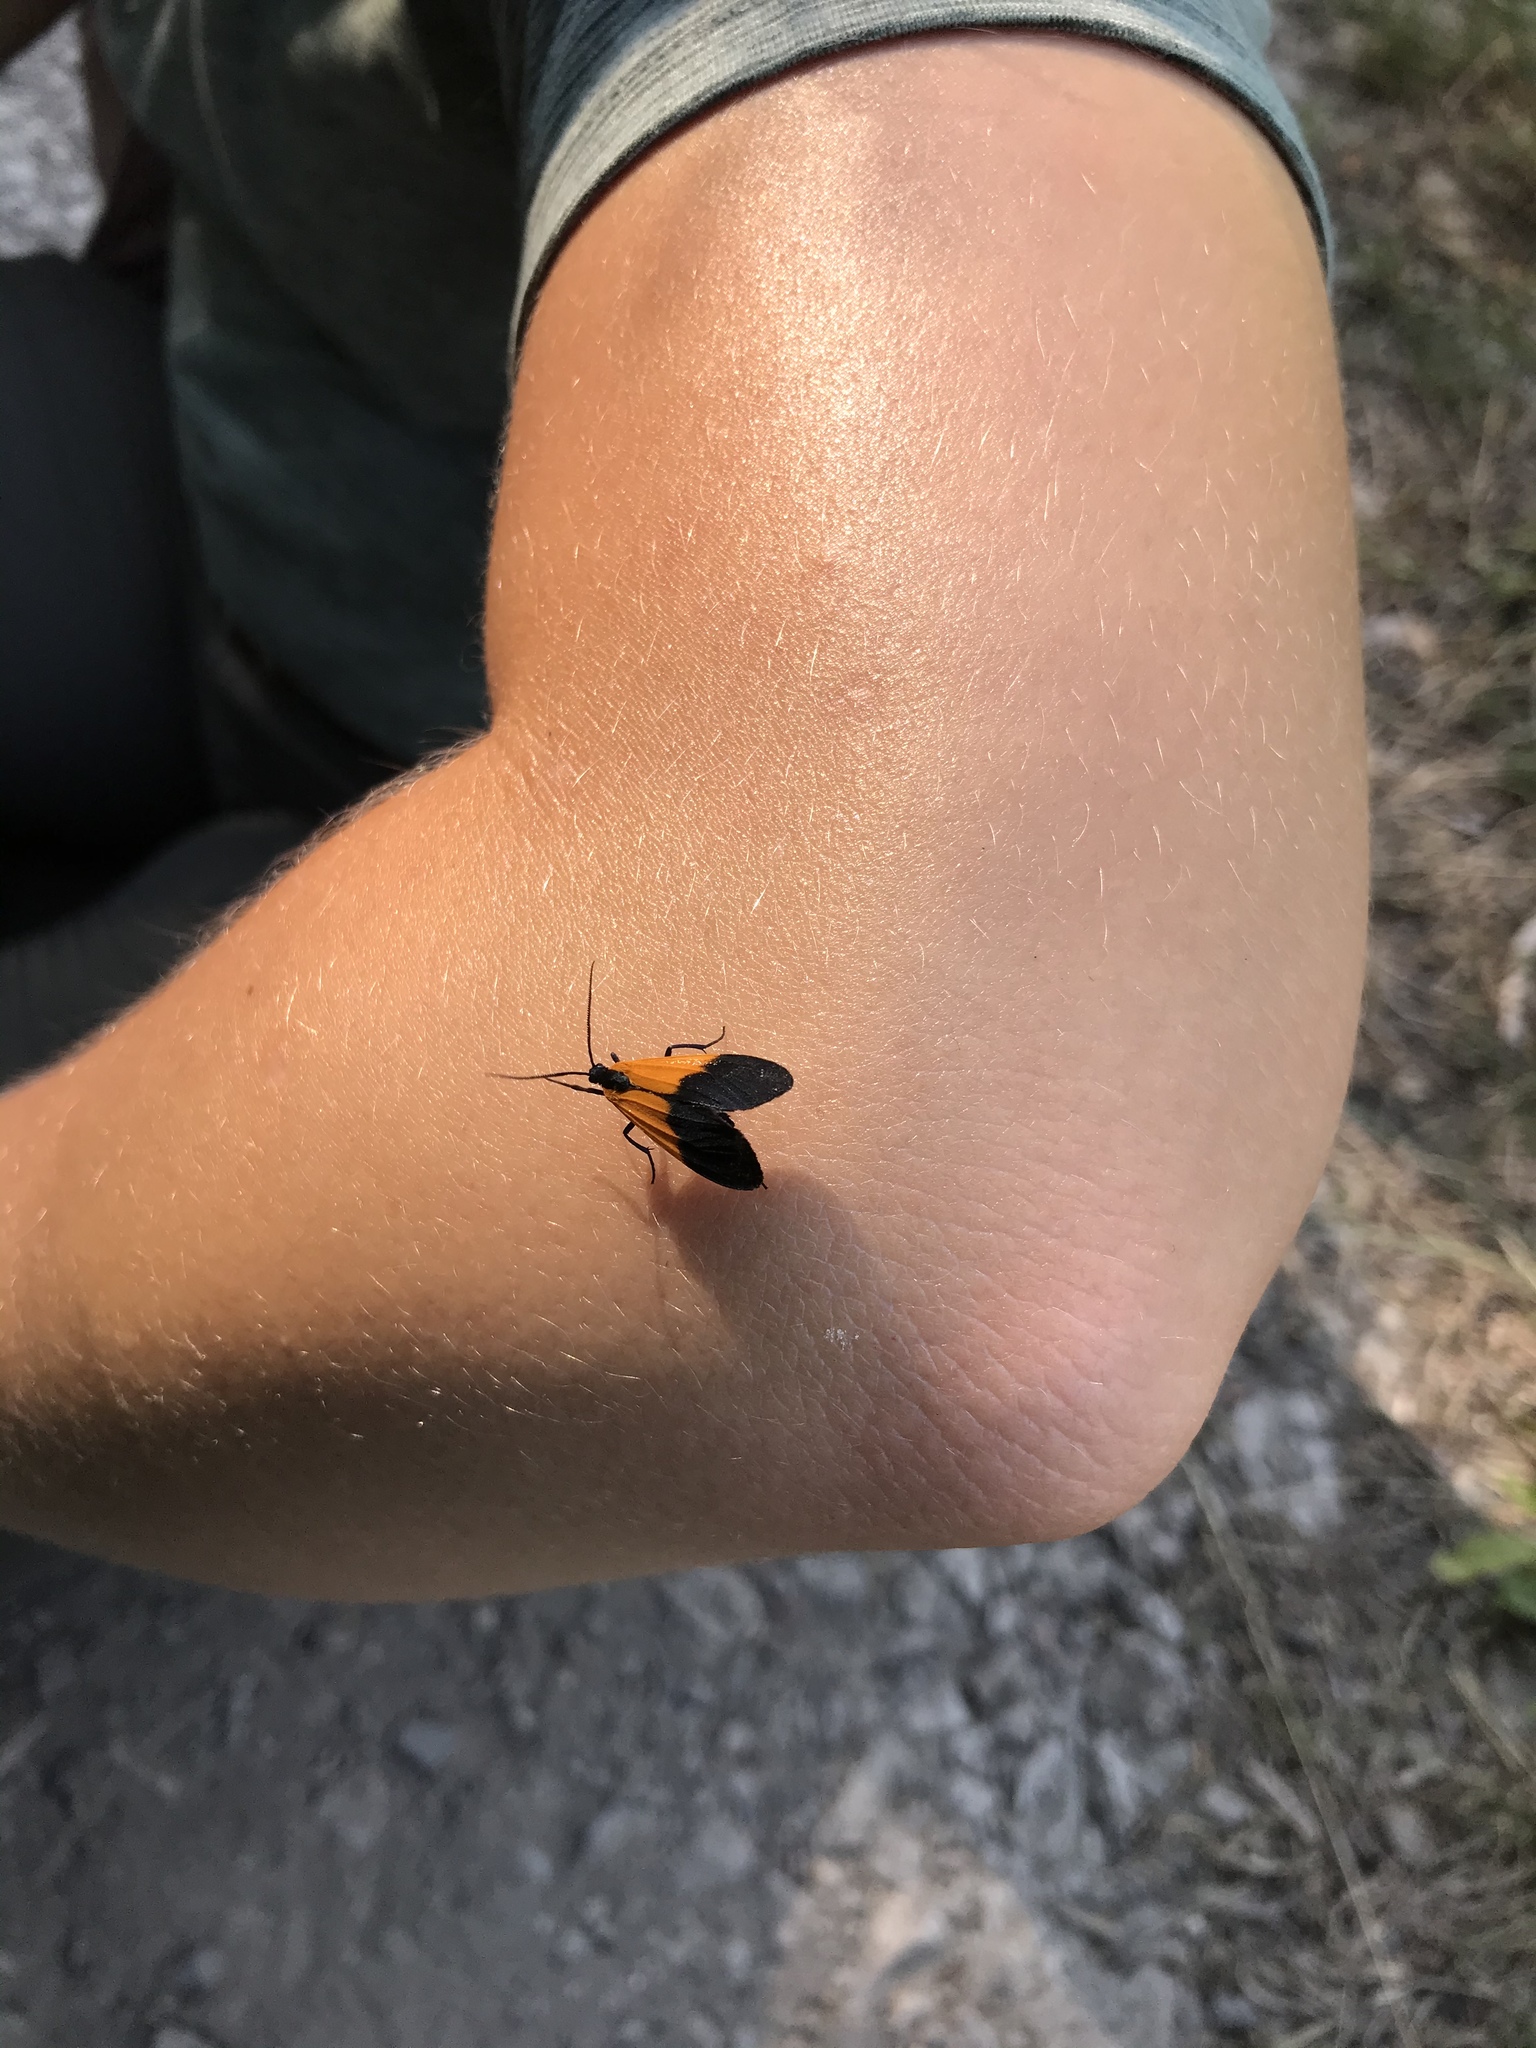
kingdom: Animalia
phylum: Arthropoda
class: Insecta
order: Lepidoptera
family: Erebidae
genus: Lycomorpha
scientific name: Lycomorpha pholus
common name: Black-and-yellow lichen moth
